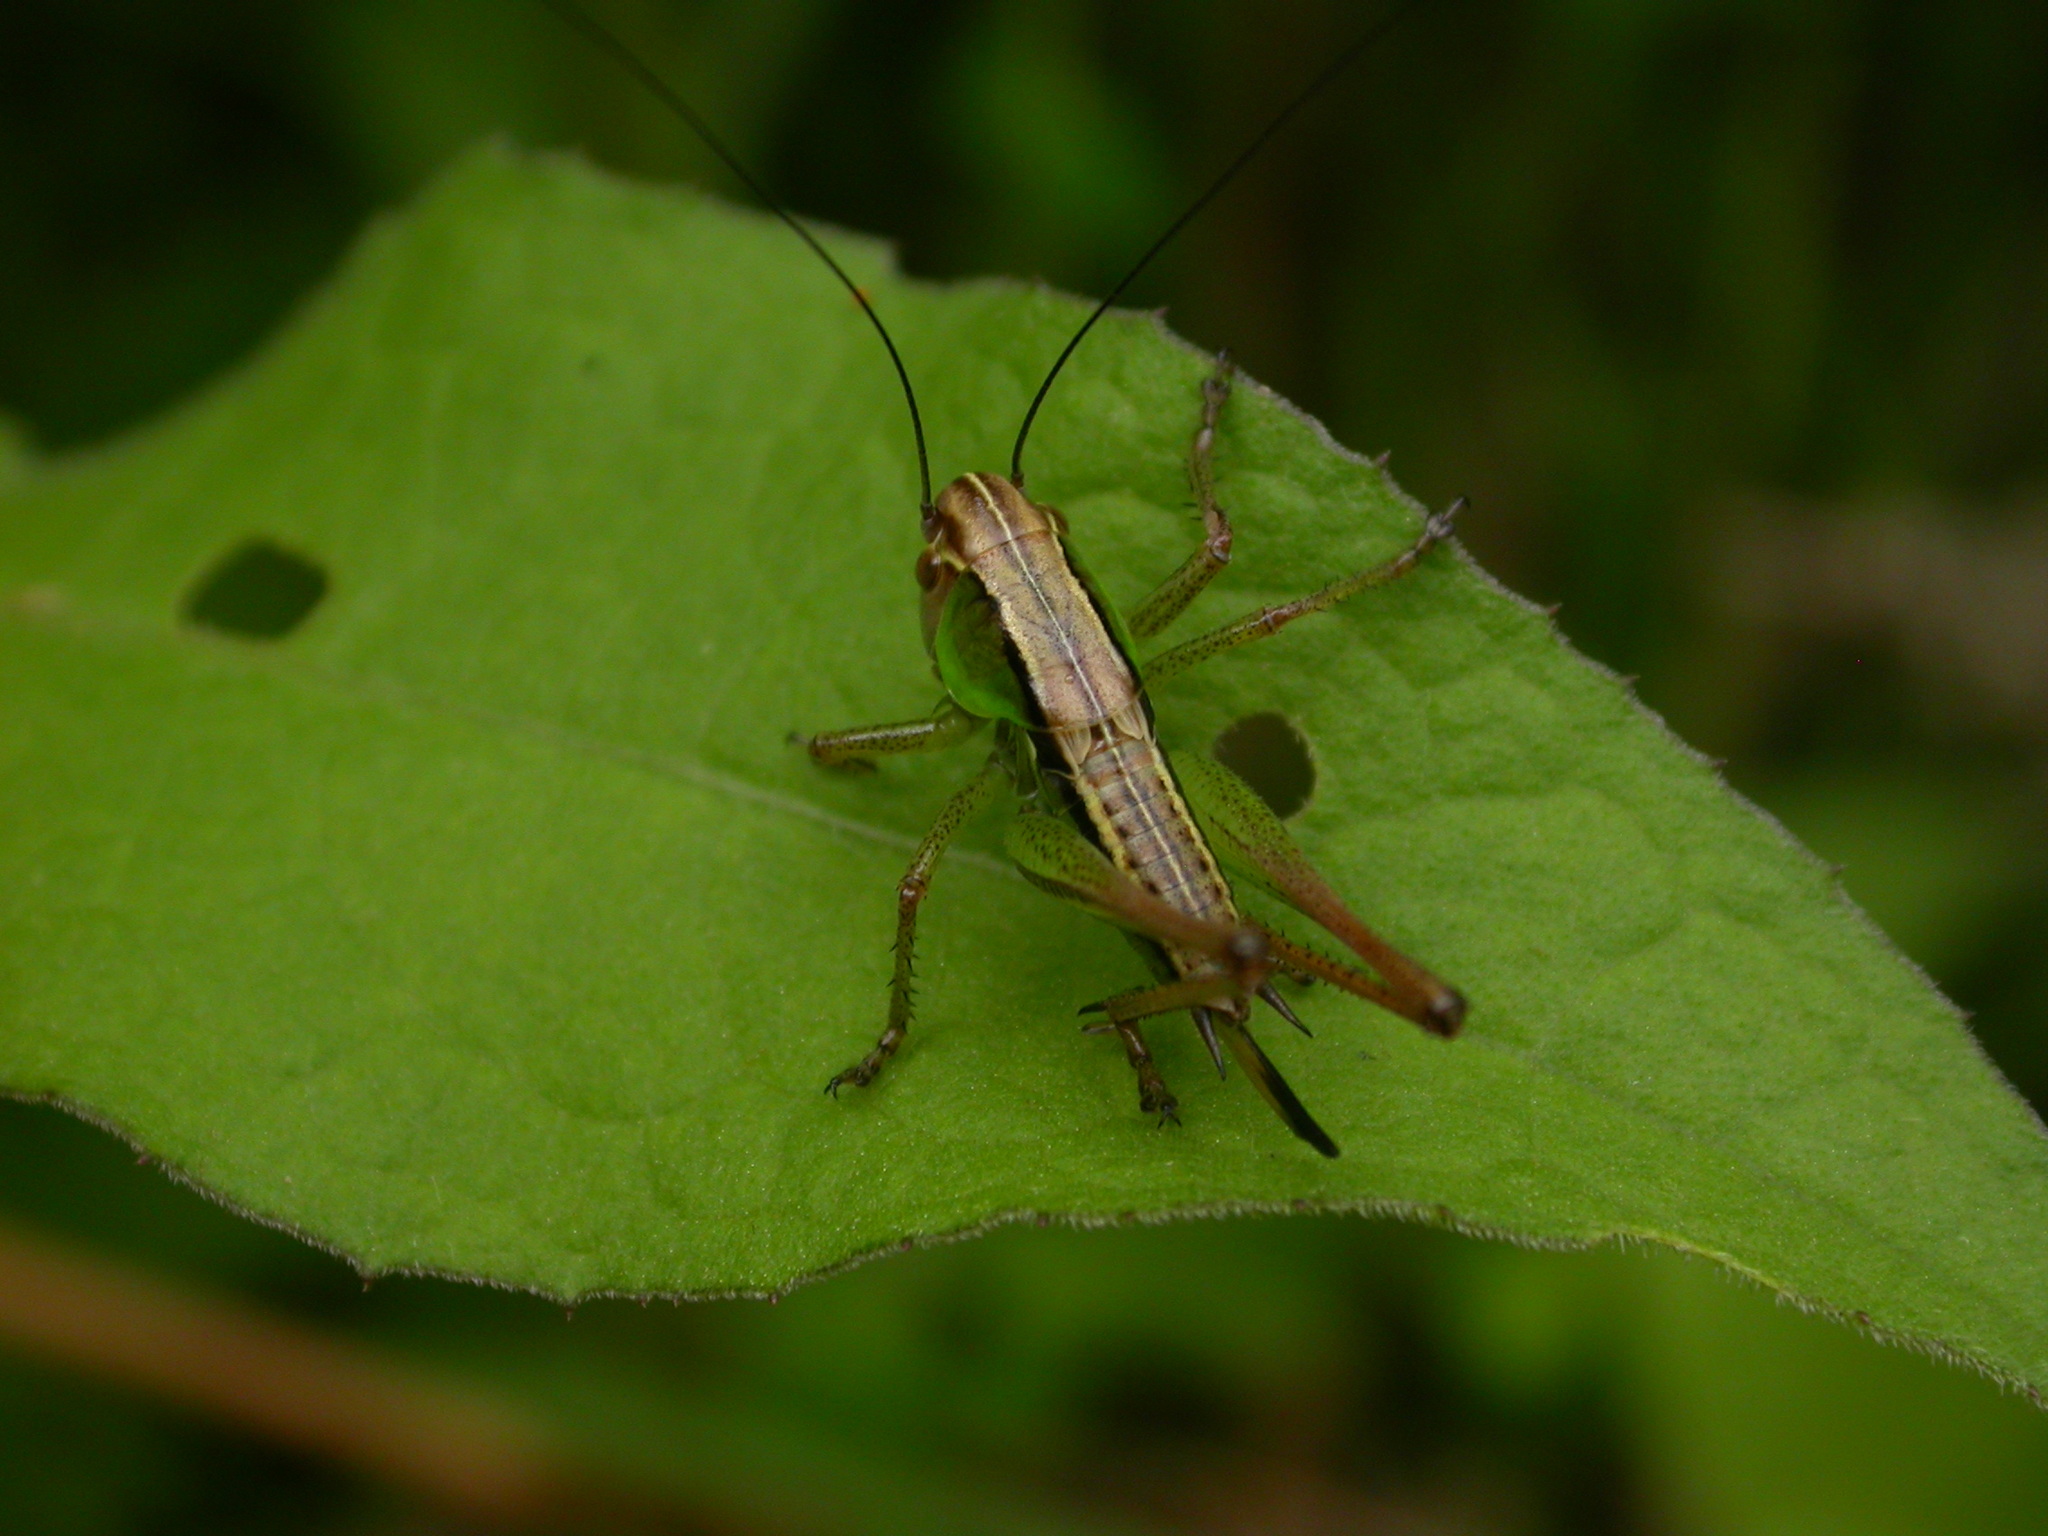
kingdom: Animalia
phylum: Arthropoda
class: Insecta
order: Orthoptera
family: Tettigoniidae
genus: Roeseliana
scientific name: Roeseliana roeselii
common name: Roesel's bush cricket
